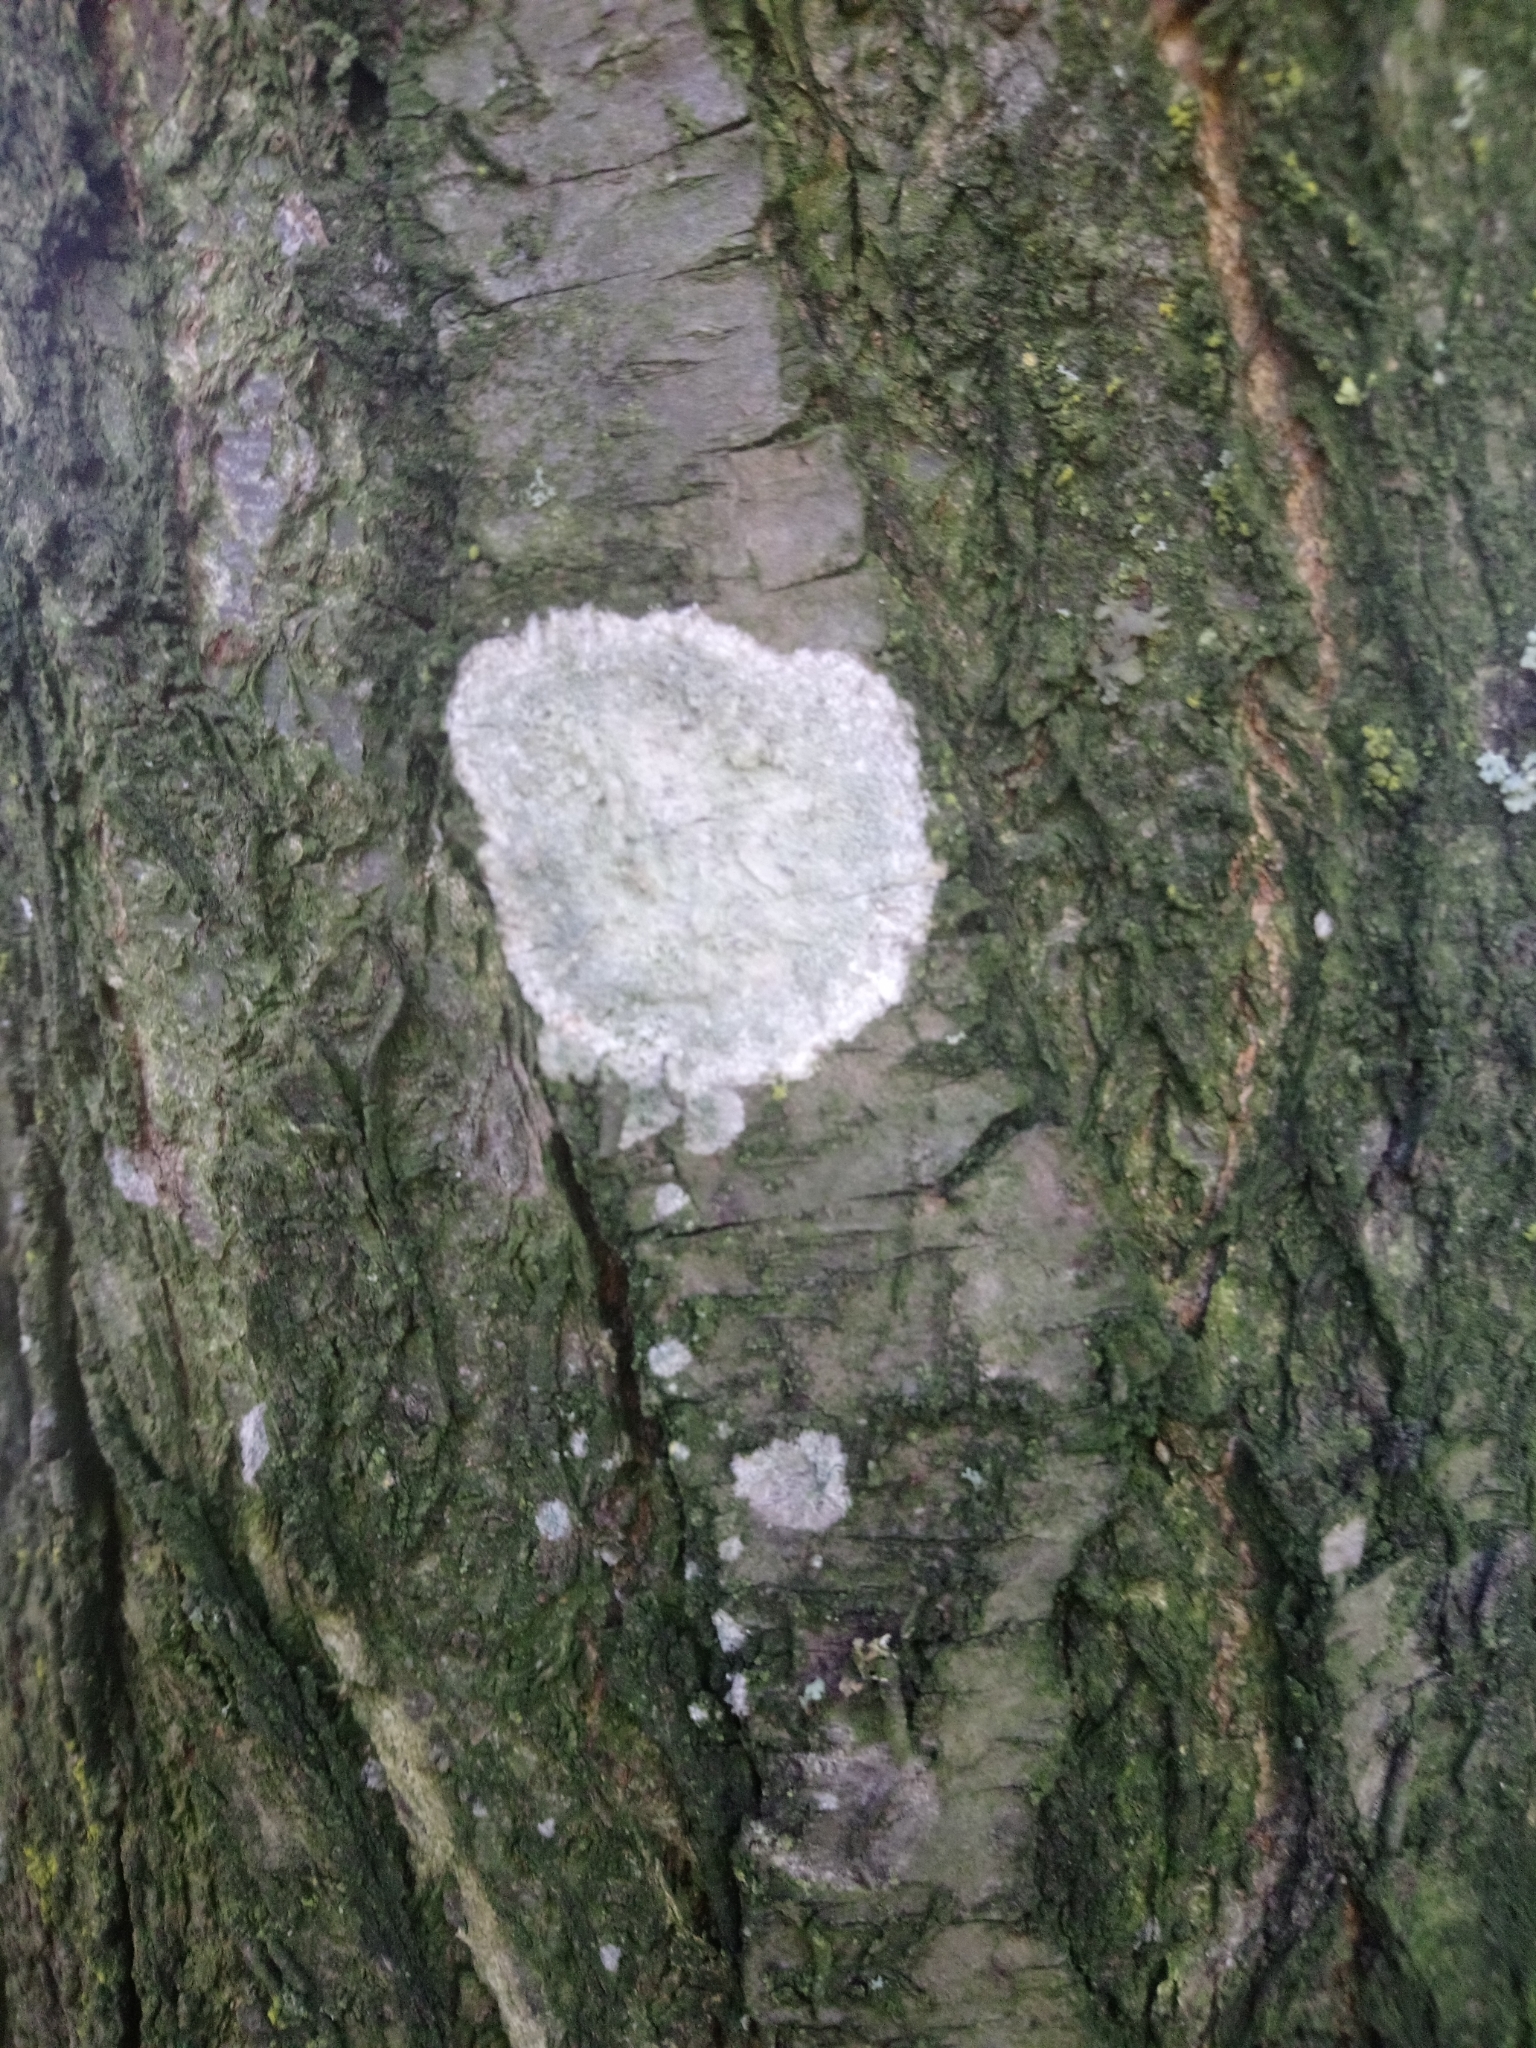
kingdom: Fungi
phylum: Ascomycota
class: Lecanoromycetes
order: Ostropales
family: Phlyctidaceae
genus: Phlyctis
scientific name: Phlyctis argena
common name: Whitewash lichen
